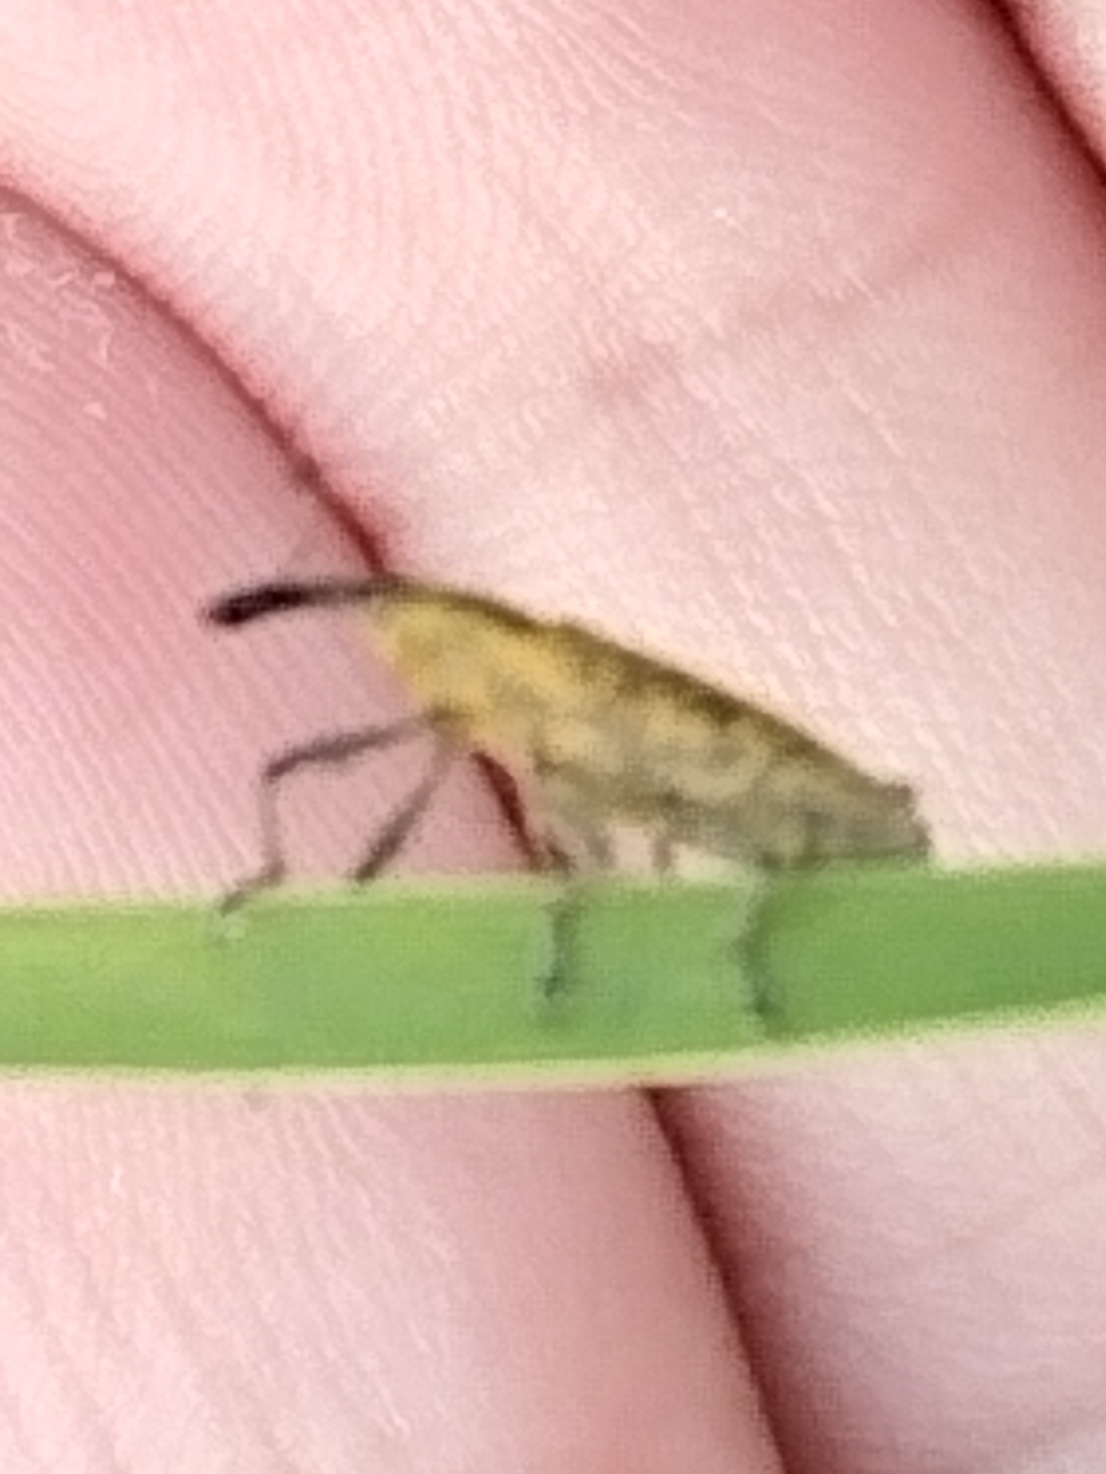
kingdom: Animalia
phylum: Arthropoda
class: Insecta
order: Coleoptera
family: Curculionidae
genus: Lixus
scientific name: Lixus iridis
